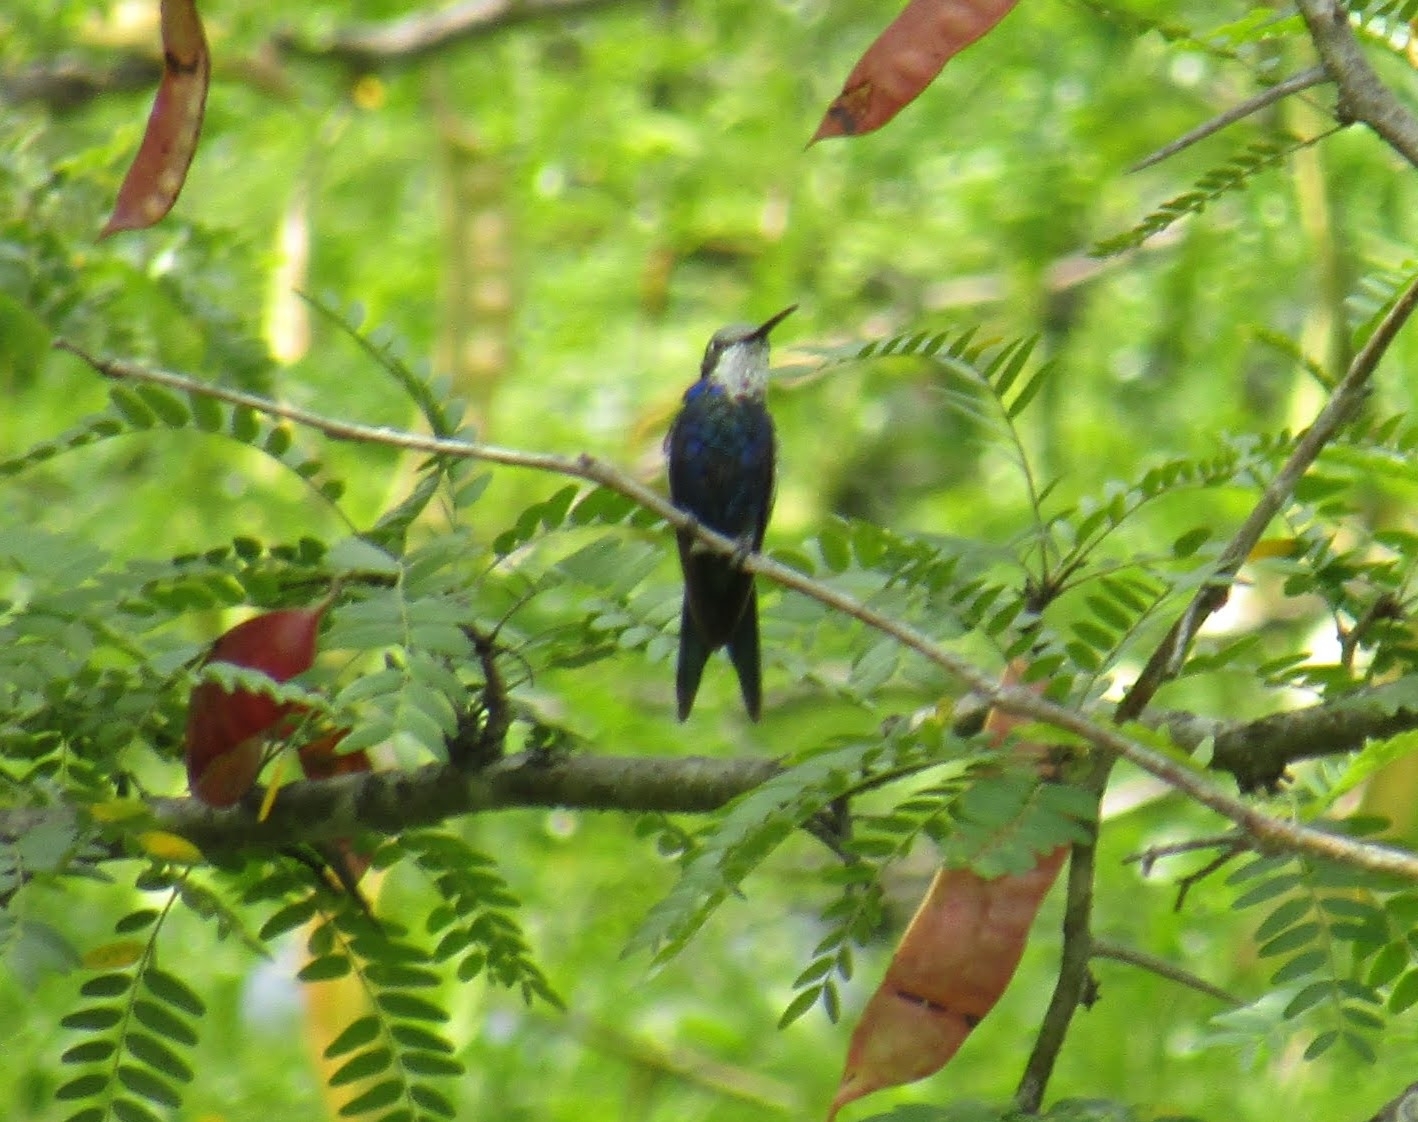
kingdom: Animalia
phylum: Chordata
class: Aves
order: Apodiformes
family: Trochilidae
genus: Heliomaster
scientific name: Heliomaster furcifer
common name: Blue-tufted starthroat
